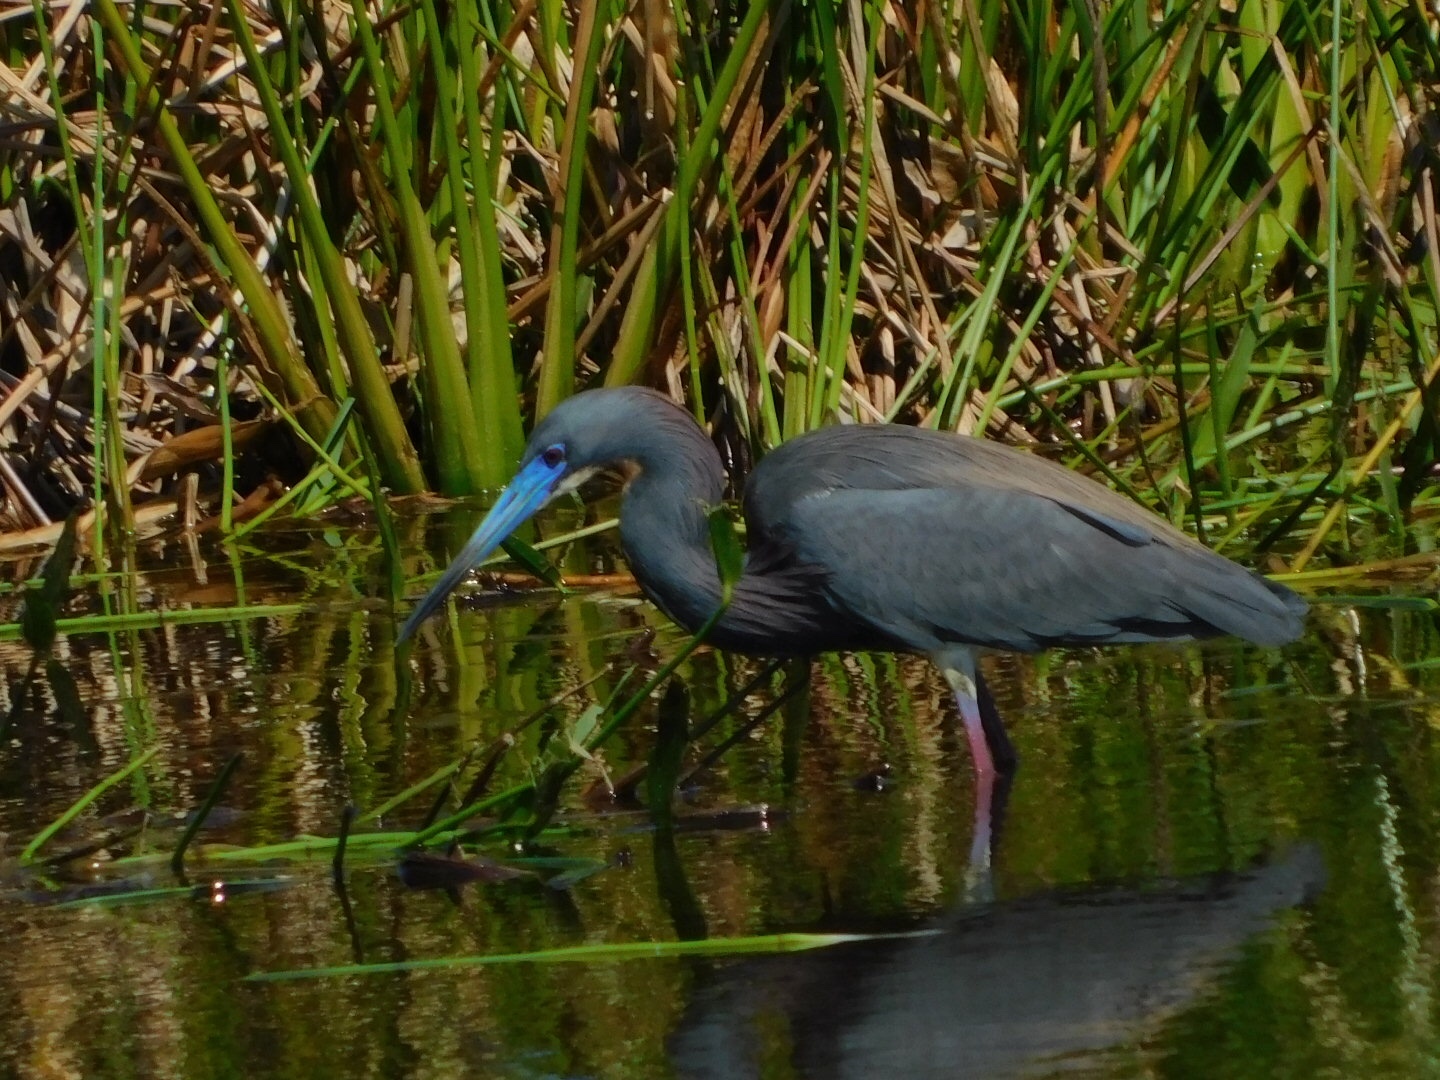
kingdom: Animalia
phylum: Chordata
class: Aves
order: Pelecaniformes
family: Ardeidae
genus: Egretta
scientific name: Egretta tricolor
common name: Tricolored heron
